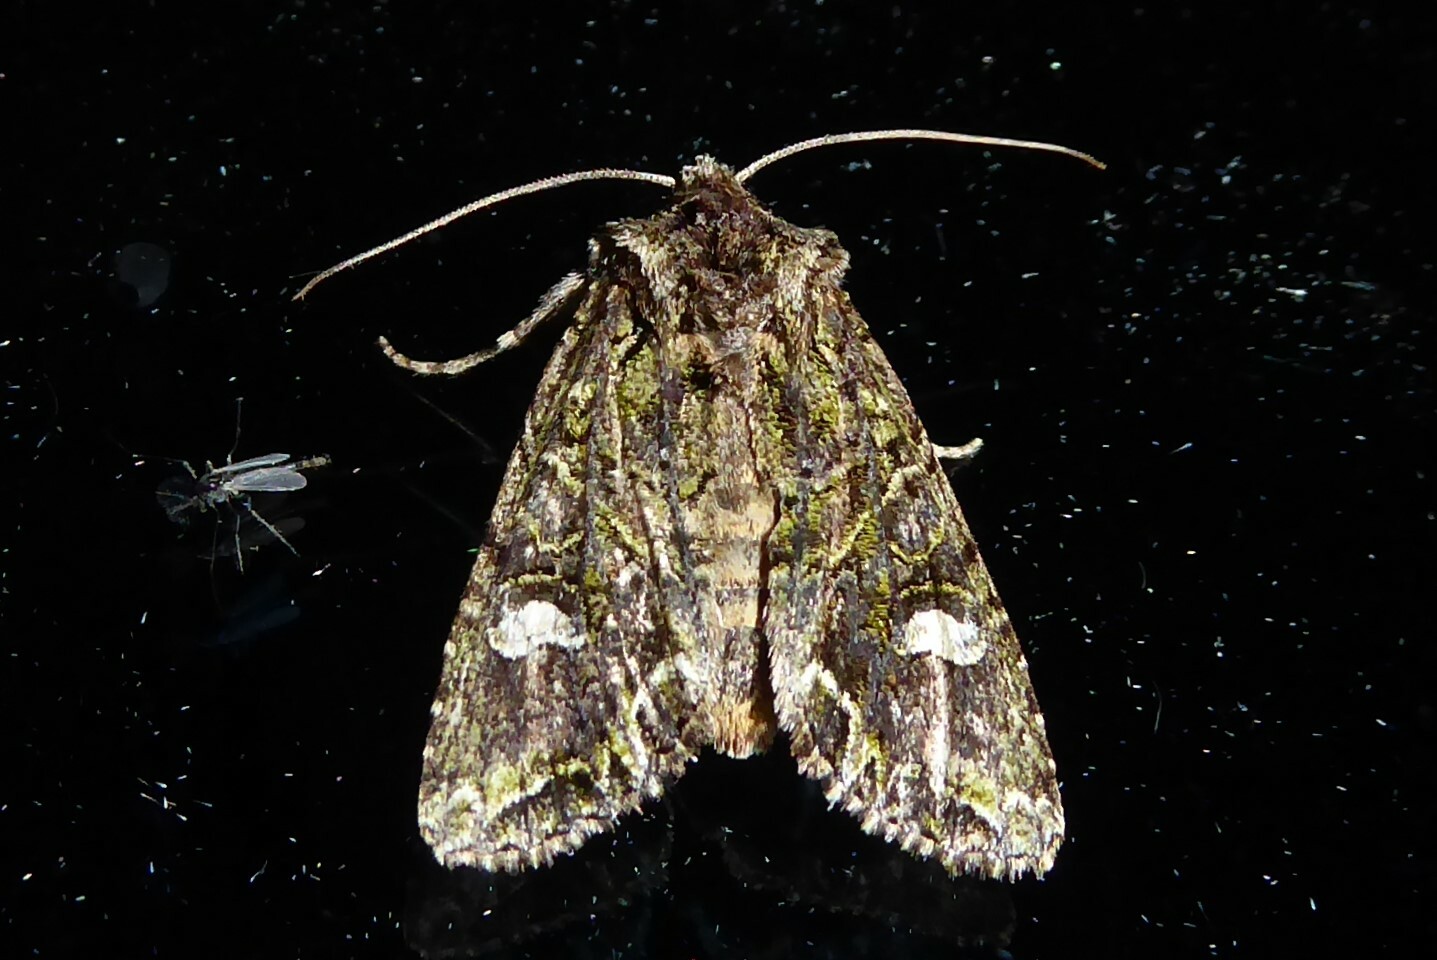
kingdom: Animalia
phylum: Arthropoda
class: Insecta
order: Lepidoptera
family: Noctuidae
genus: Ichneutica
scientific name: Ichneutica insignis
